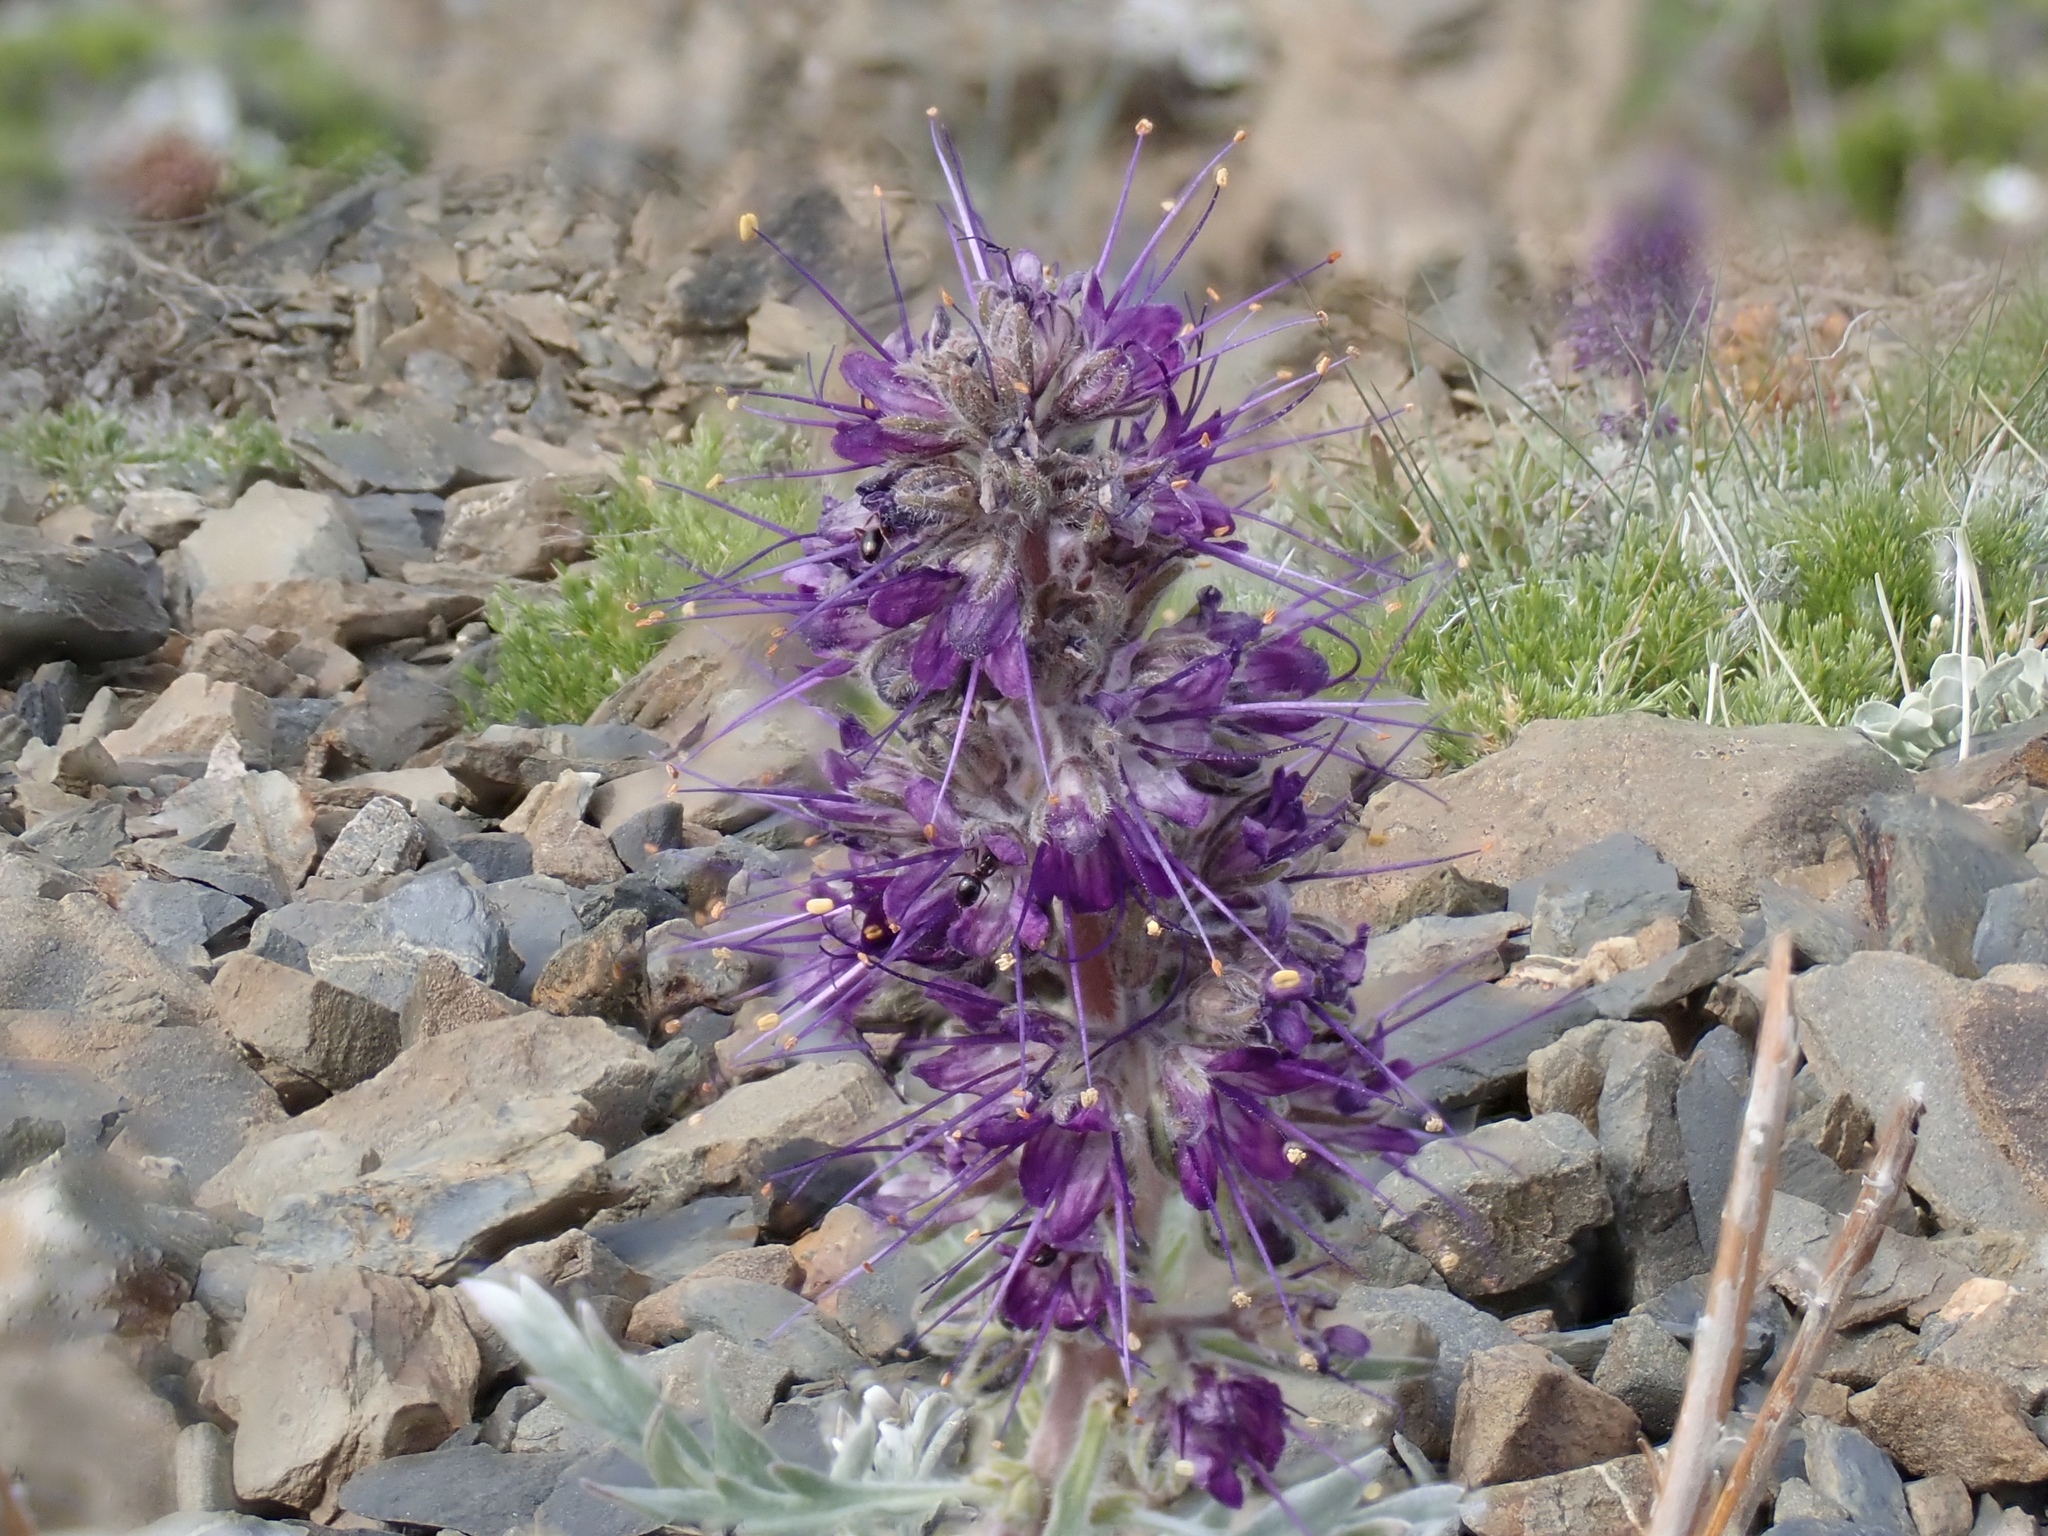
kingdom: Plantae
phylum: Tracheophyta
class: Magnoliopsida
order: Boraginales
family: Hydrophyllaceae
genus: Phacelia
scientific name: Phacelia sericea
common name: Silky phacelia
